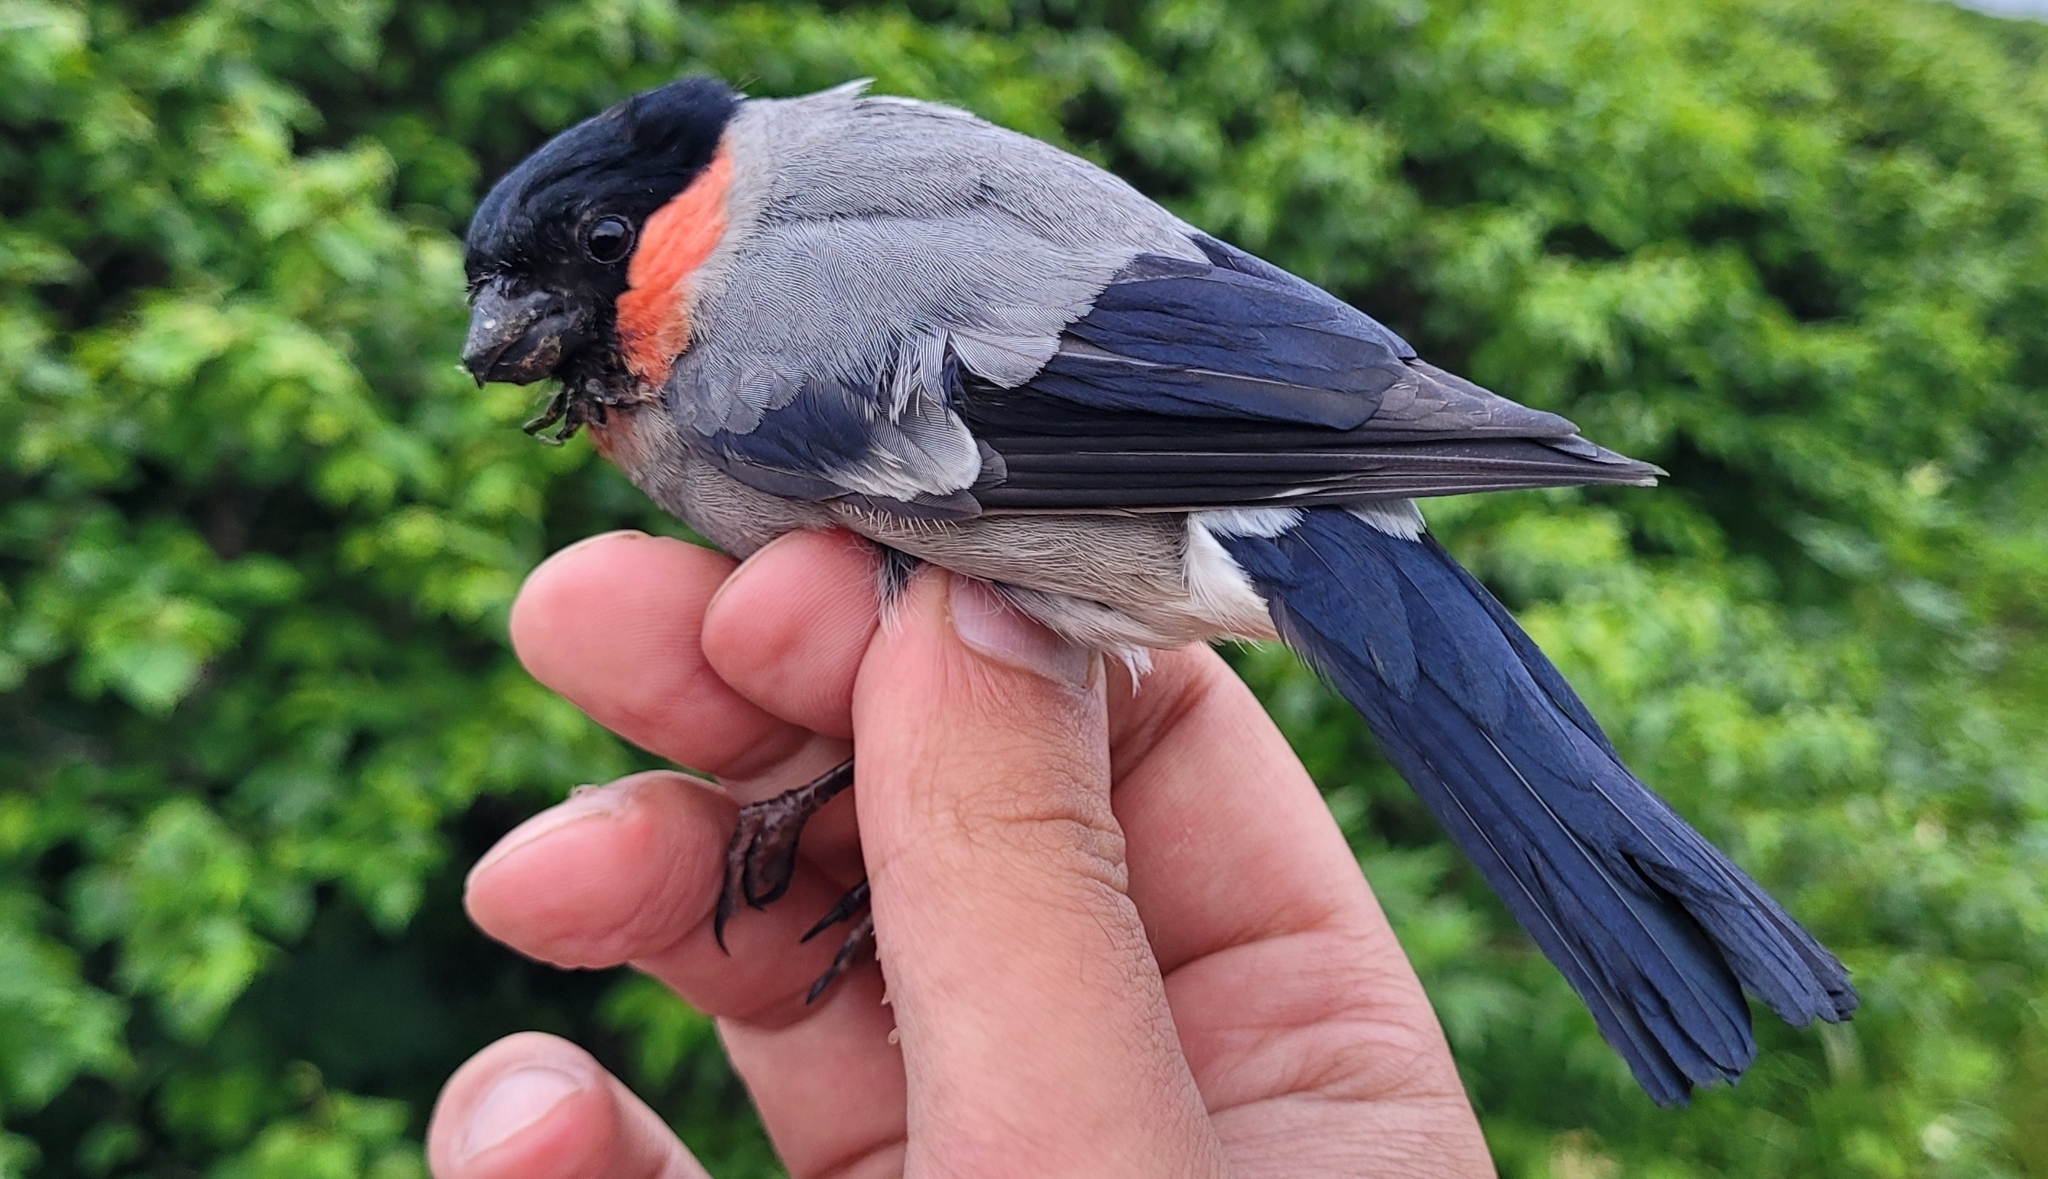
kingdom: Animalia
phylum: Chordata
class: Aves
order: Passeriformes
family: Fringillidae
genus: Pyrrhula
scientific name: Pyrrhula pyrrhula
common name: Eurasian bullfinch
